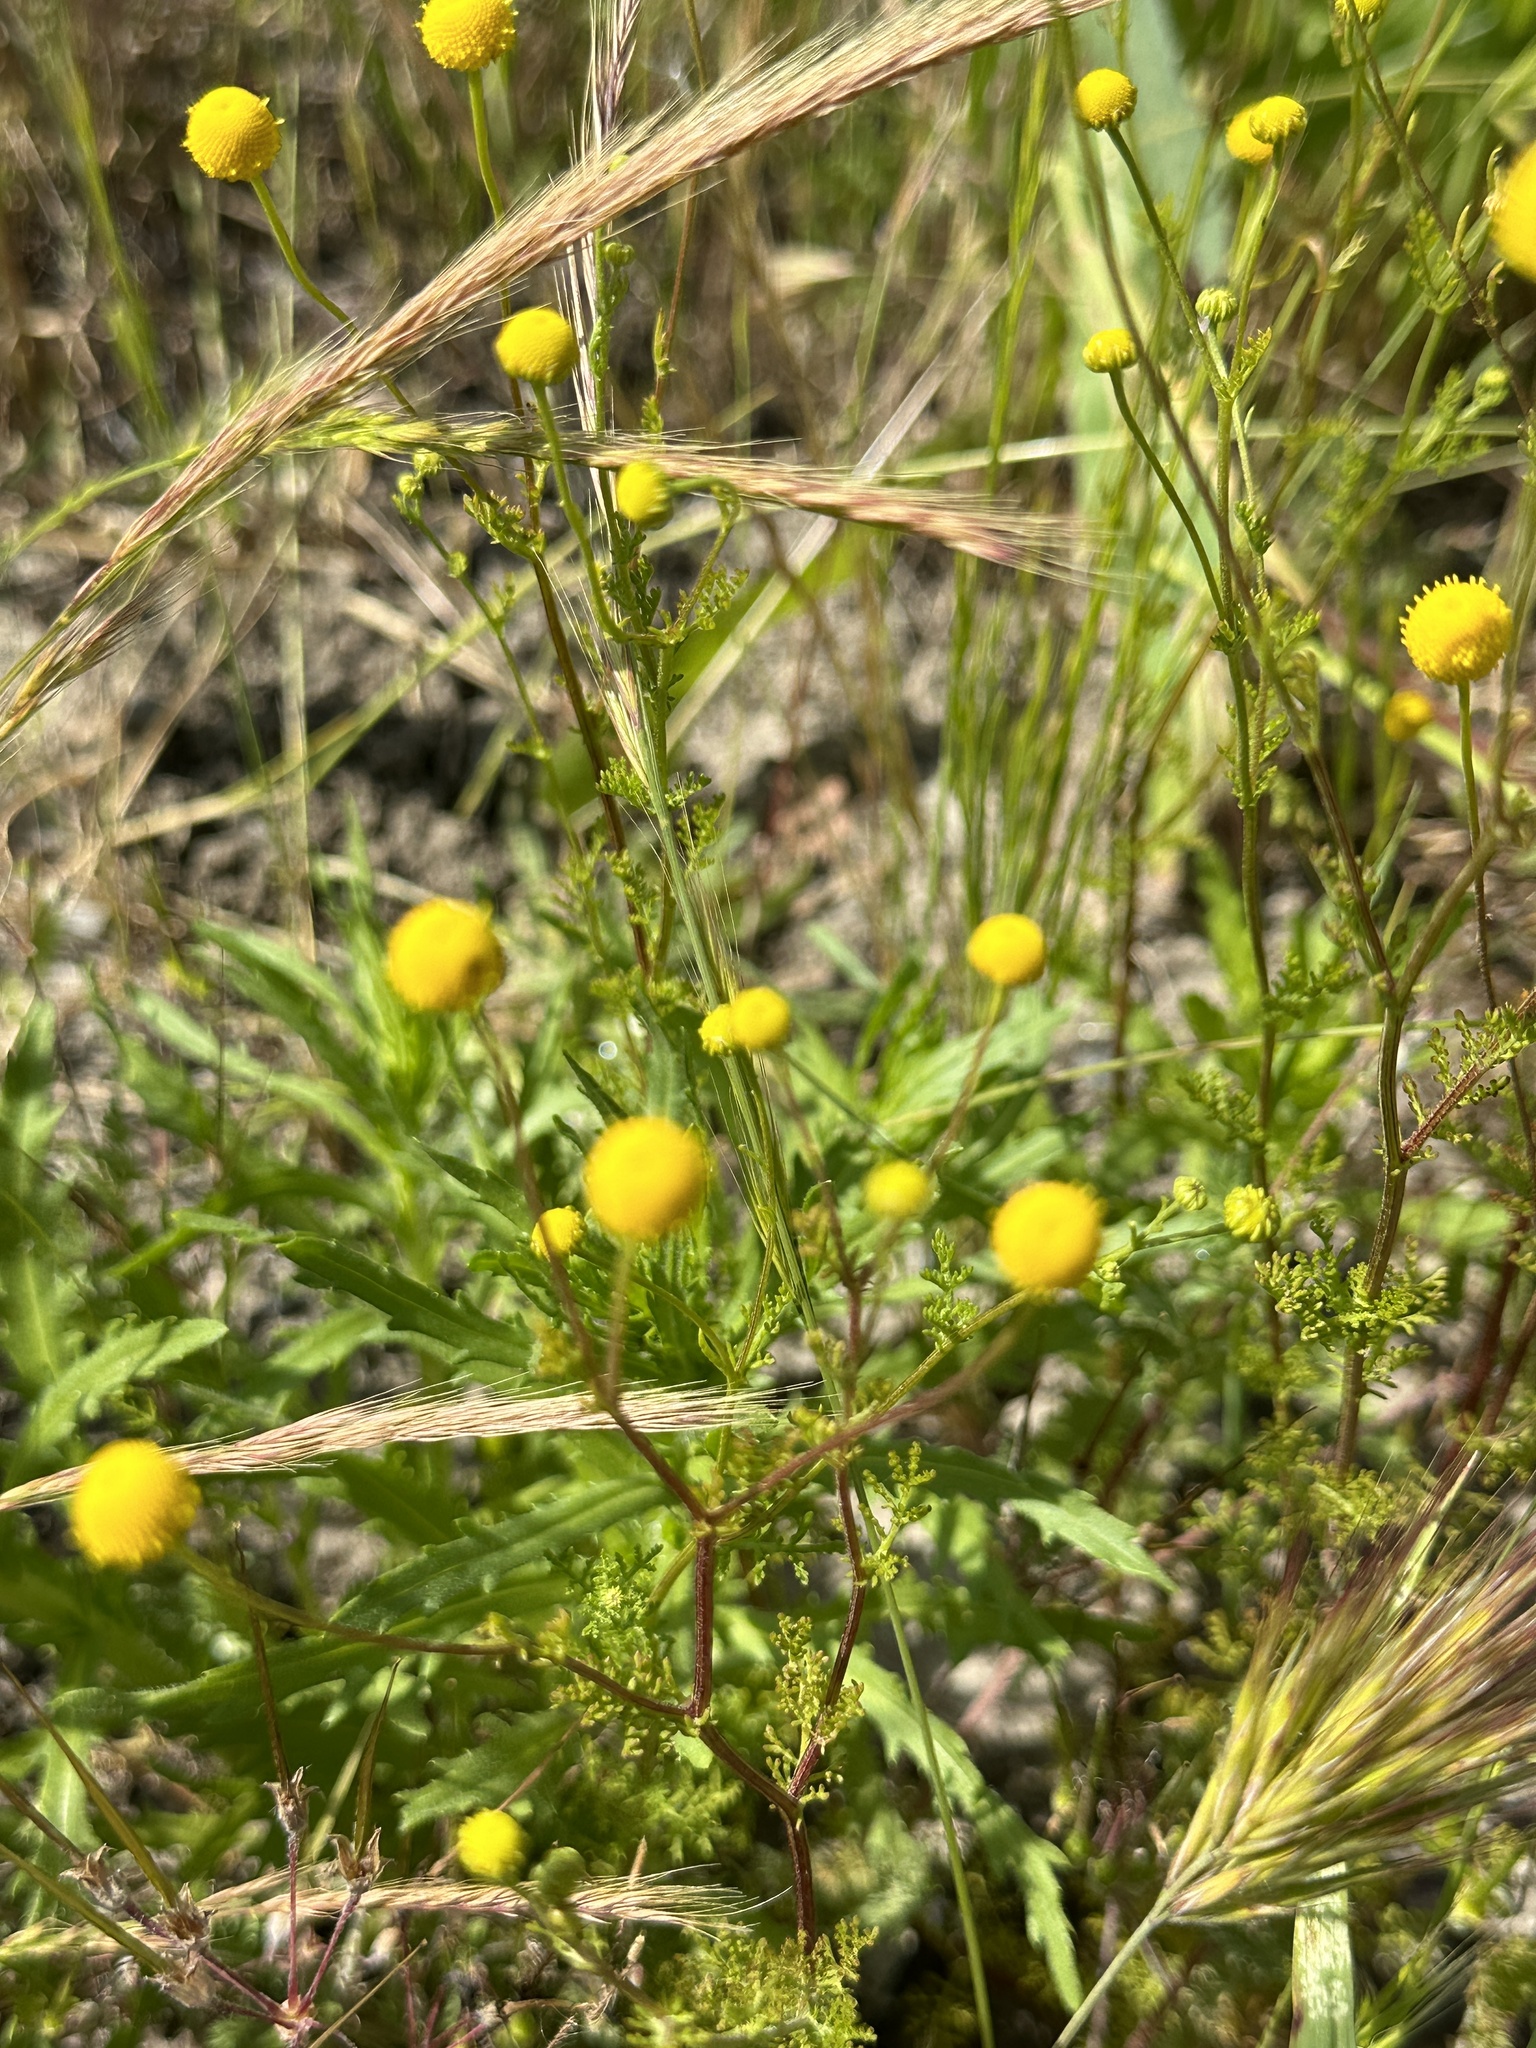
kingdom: Plantae
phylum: Tracheophyta
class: Magnoliopsida
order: Asterales
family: Asteraceae
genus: Oncosiphon
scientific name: Oncosiphon pilulifer
